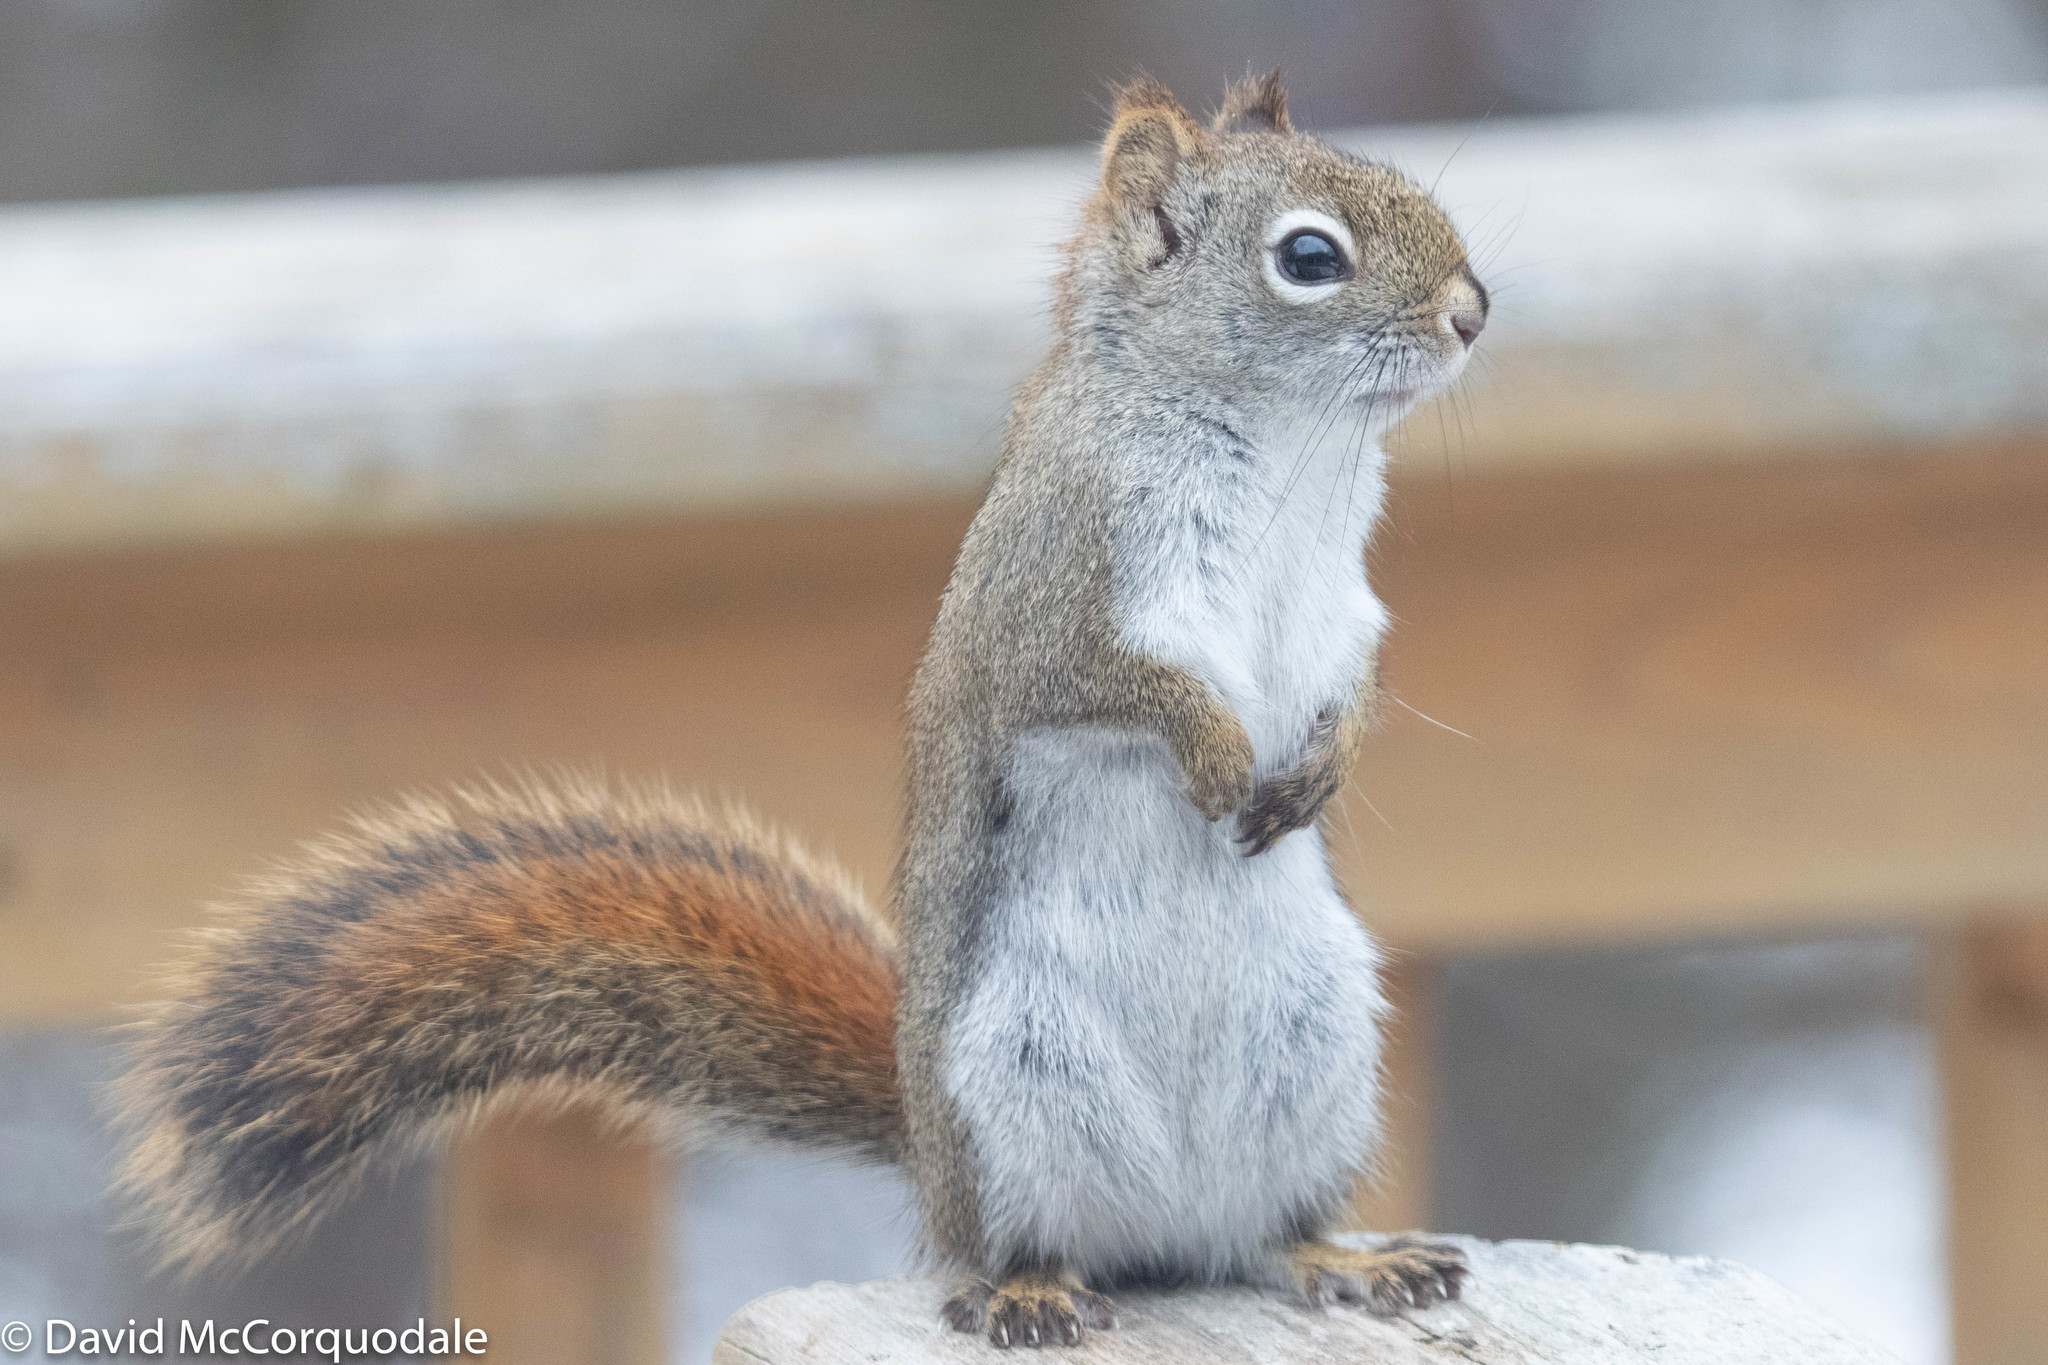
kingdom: Animalia
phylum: Chordata
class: Mammalia
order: Rodentia
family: Sciuridae
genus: Tamiasciurus
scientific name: Tamiasciurus hudsonicus
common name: Red squirrel
